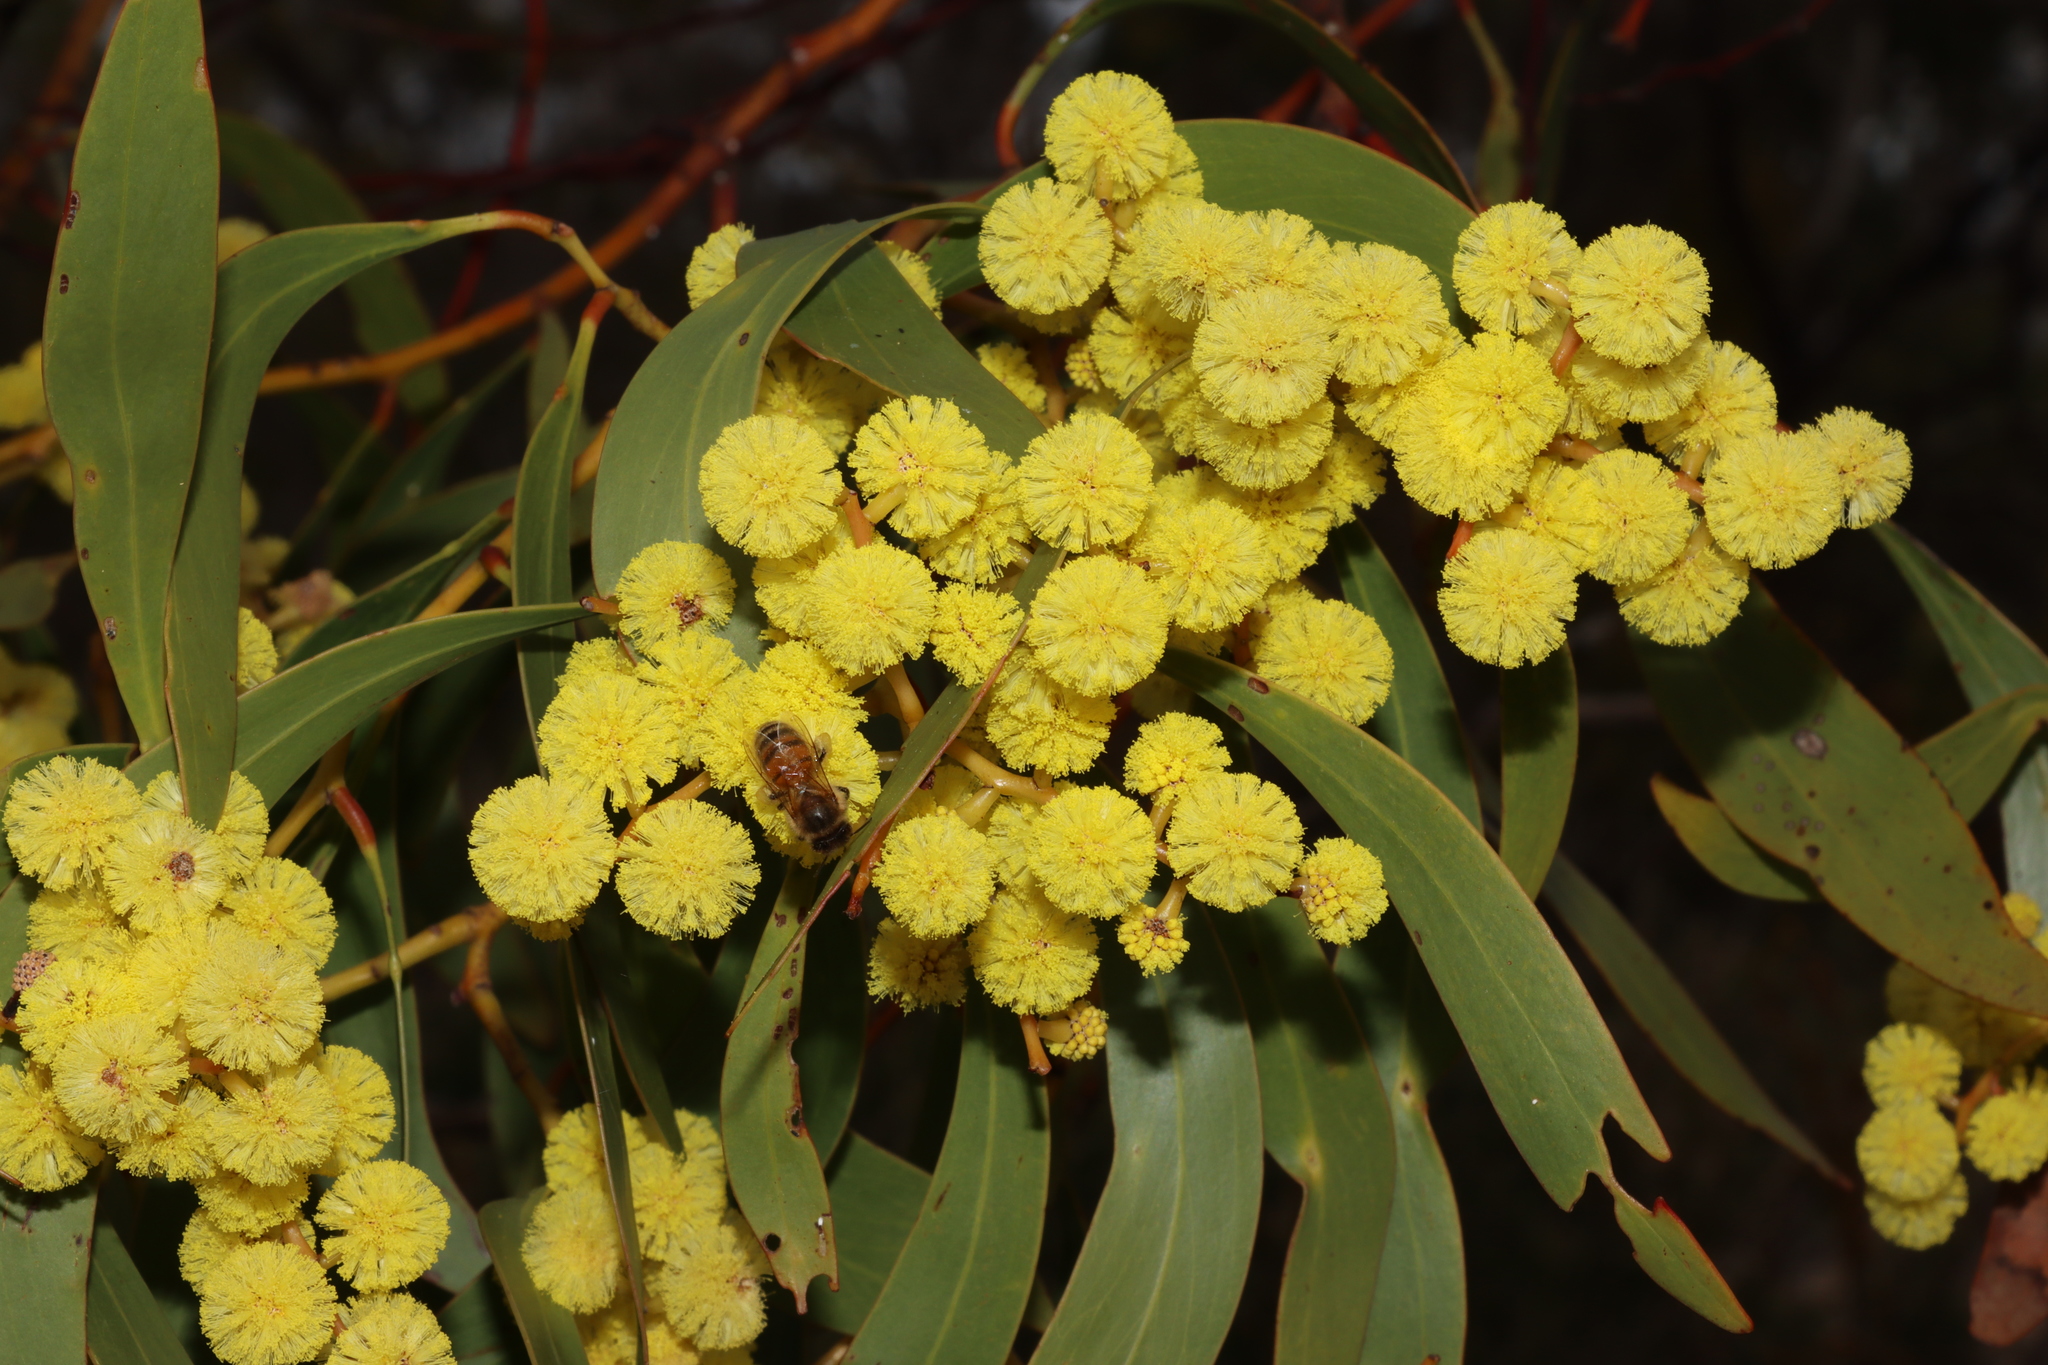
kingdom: Plantae
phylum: Tracheophyta
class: Magnoliopsida
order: Fabales
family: Fabaceae
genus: Acacia
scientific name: Acacia pycnantha
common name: Golden wattle
